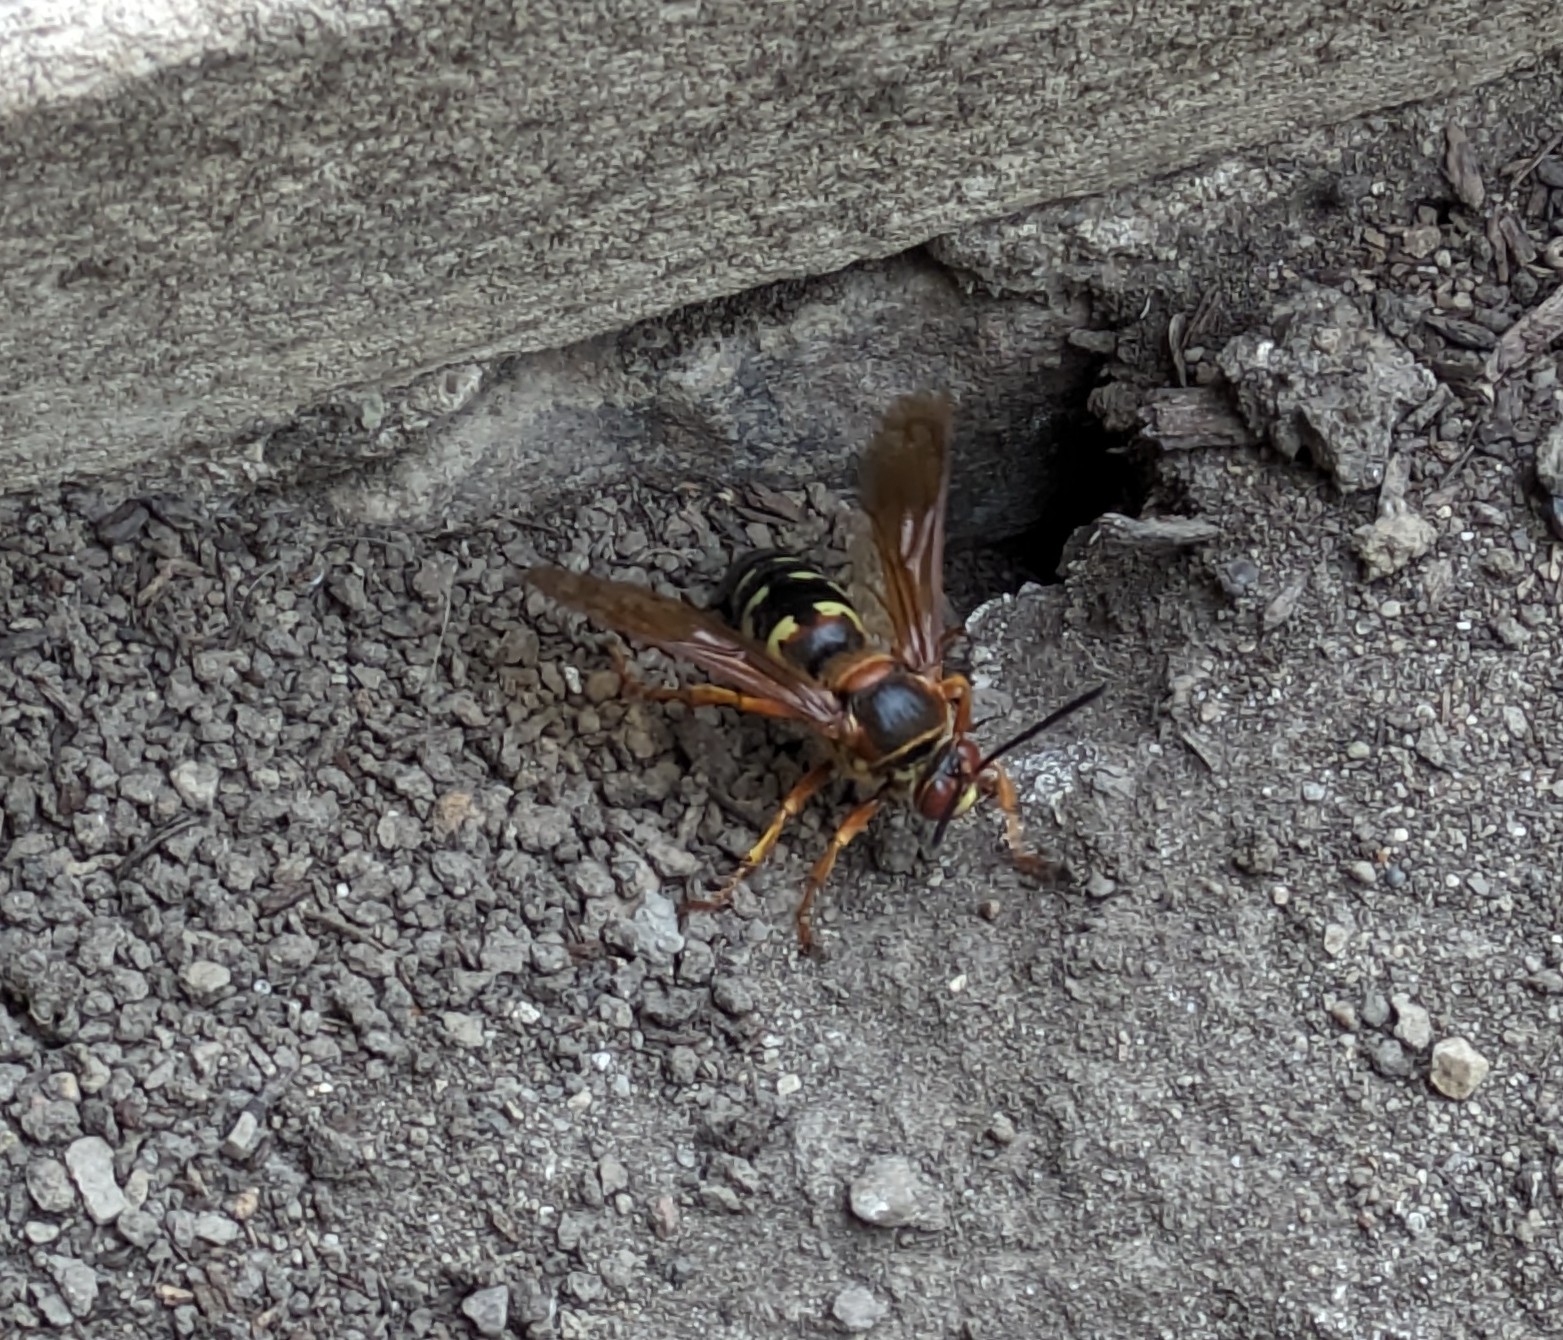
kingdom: Animalia
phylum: Arthropoda
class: Insecta
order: Hymenoptera
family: Crabronidae
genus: Sphecius
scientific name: Sphecius speciosus
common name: Cicada killer
